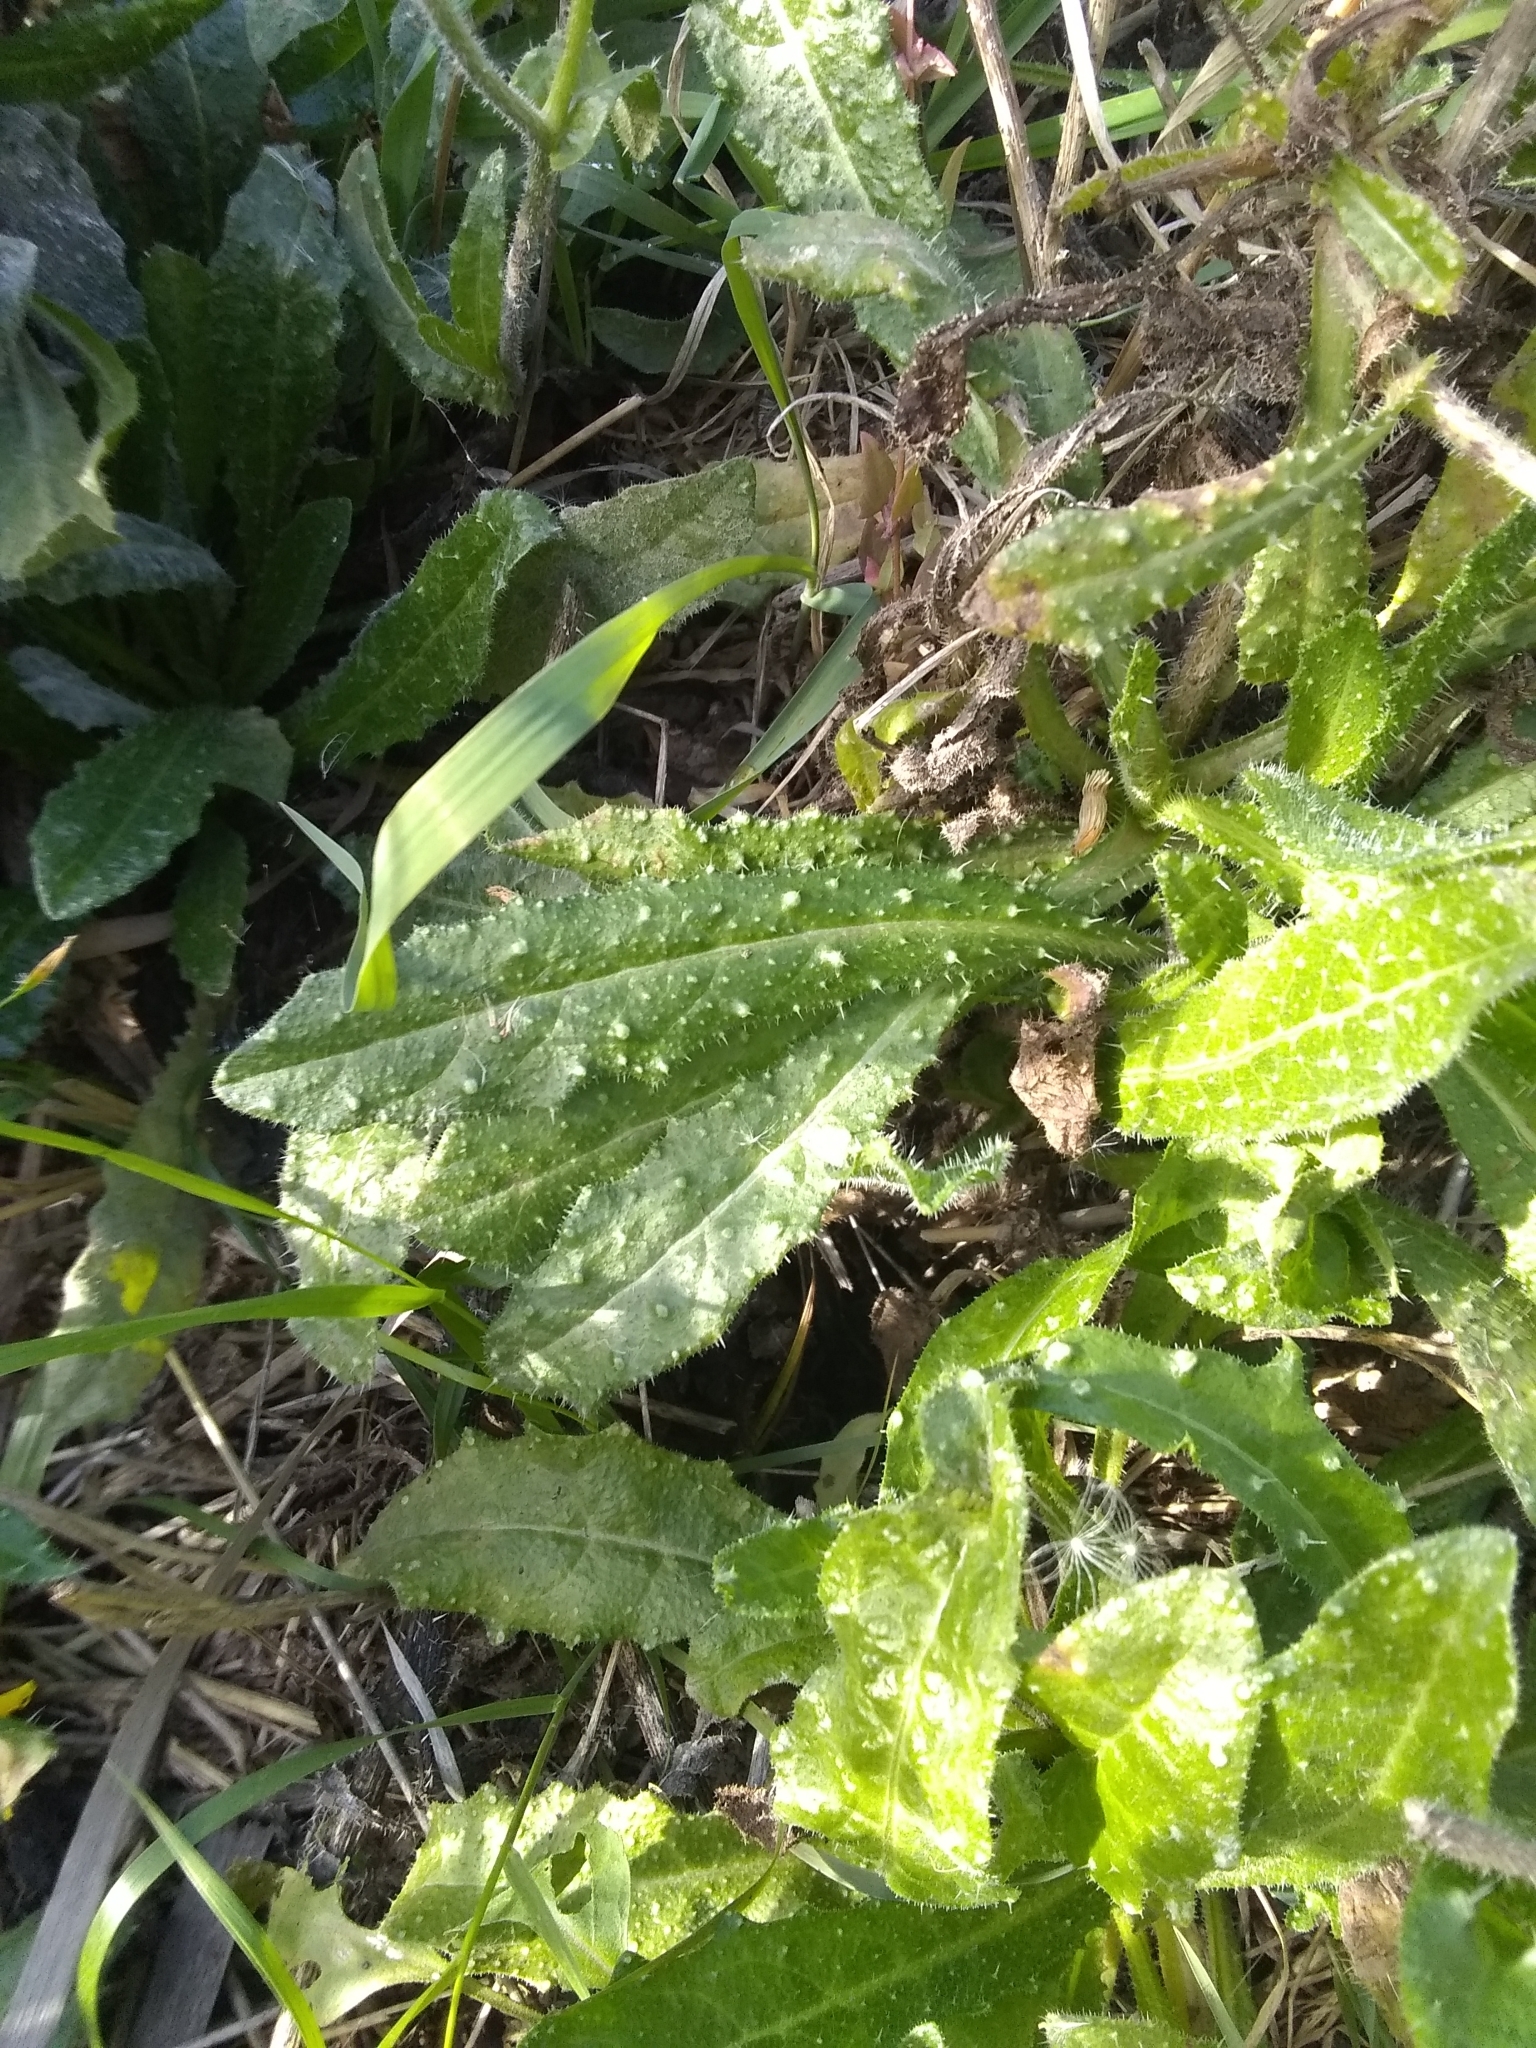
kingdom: Plantae
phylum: Tracheophyta
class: Magnoliopsida
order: Asterales
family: Asteraceae
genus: Helminthotheca
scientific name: Helminthotheca echioides
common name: Ox-tongue
